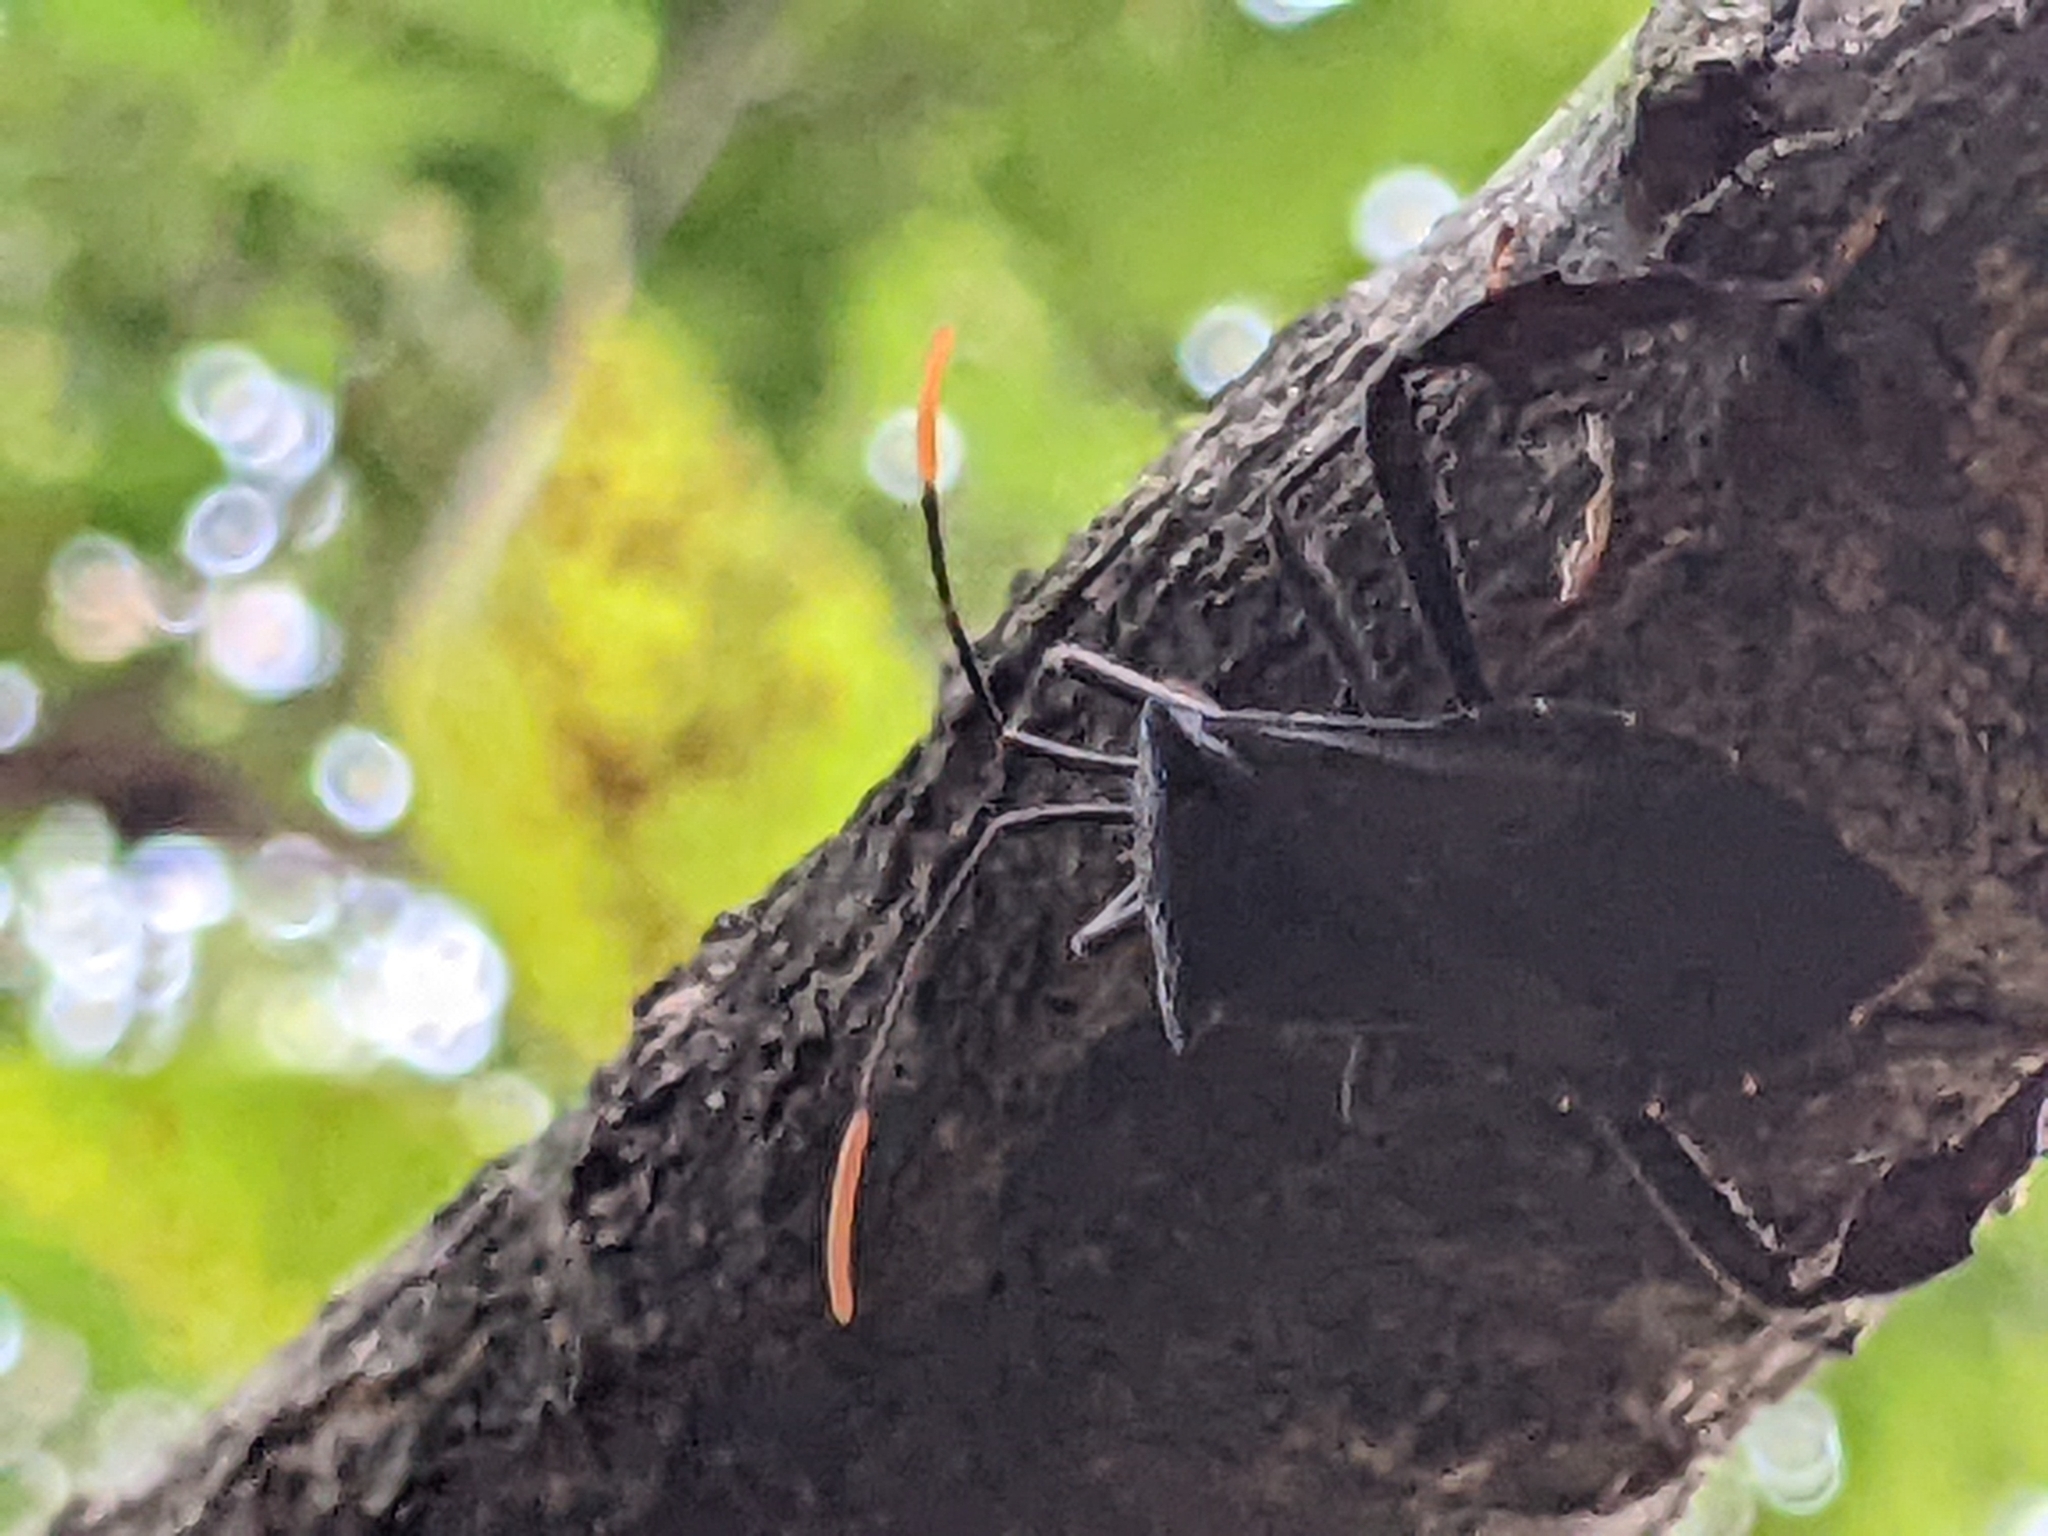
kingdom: Animalia
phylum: Arthropoda
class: Insecta
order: Hemiptera
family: Coreidae
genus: Acanthocephala
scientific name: Acanthocephala terminalis
